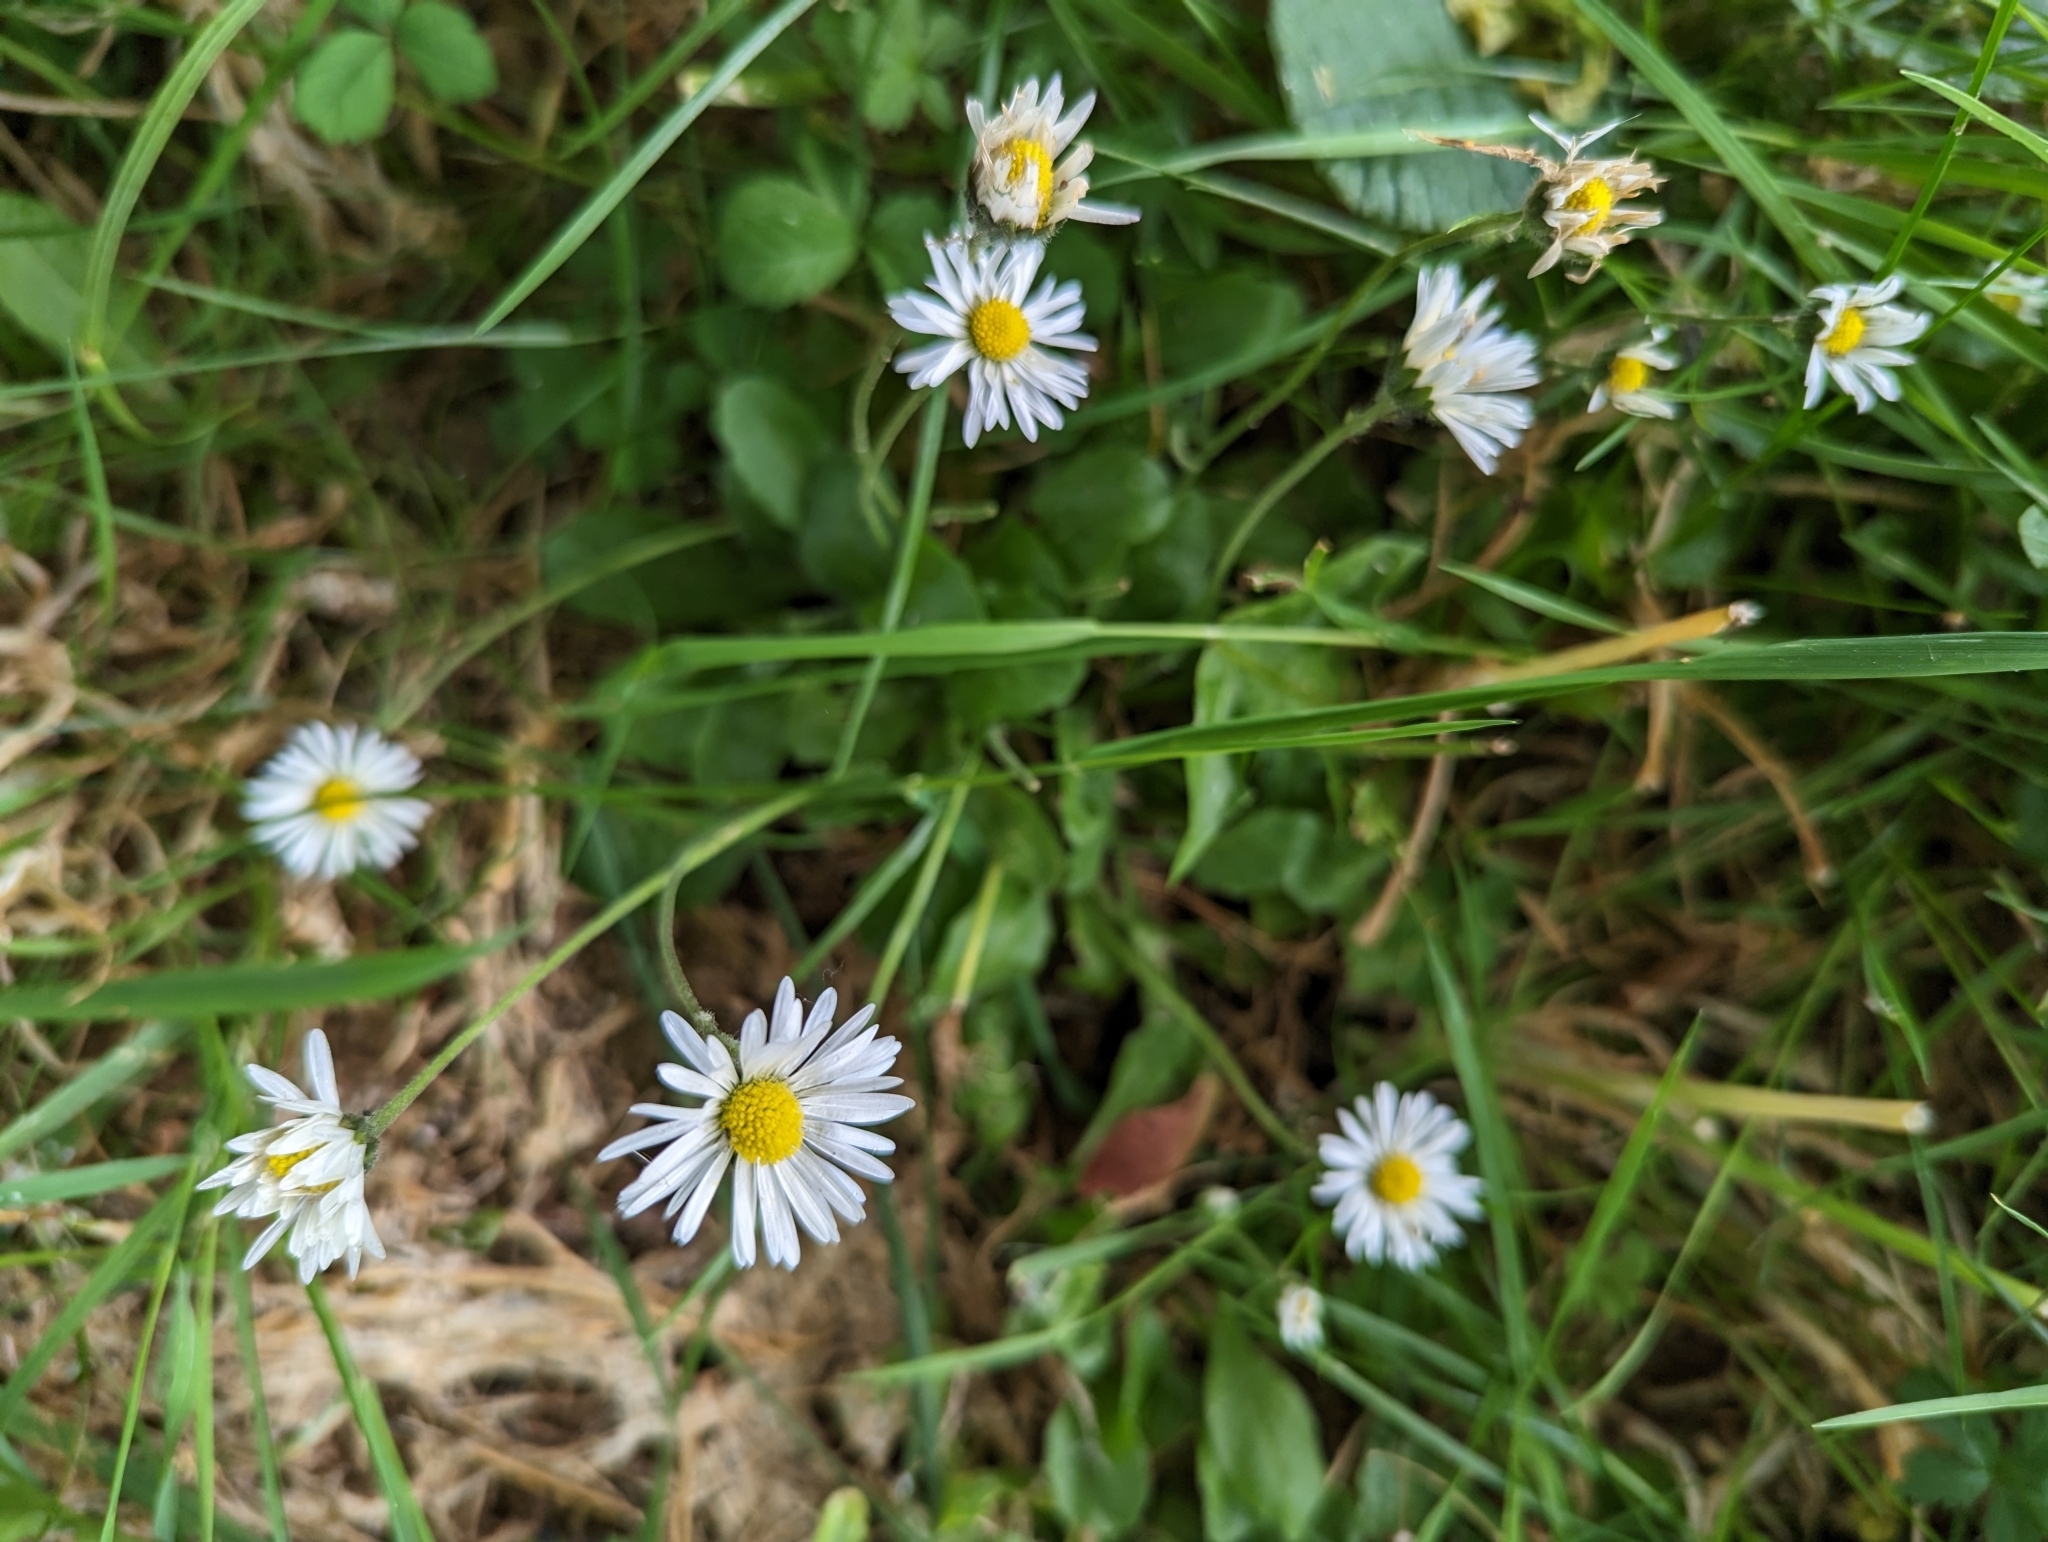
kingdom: Plantae
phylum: Tracheophyta
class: Magnoliopsida
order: Asterales
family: Asteraceae
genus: Bellis
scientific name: Bellis perennis
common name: Lawndaisy
